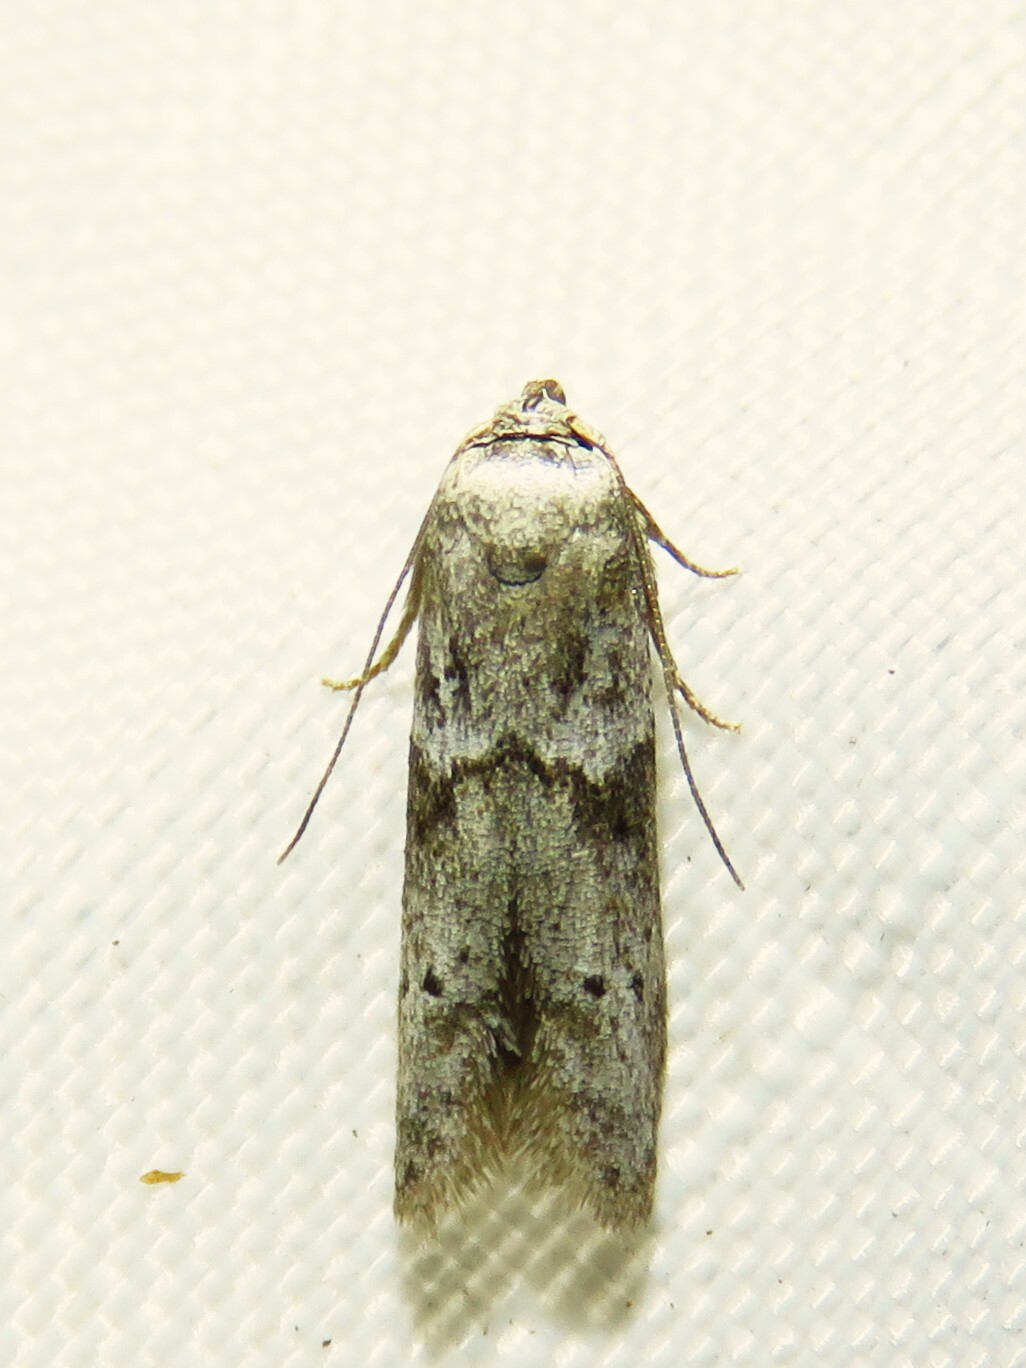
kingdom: Animalia
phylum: Arthropoda
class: Insecta
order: Lepidoptera
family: Blastobasidae
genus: Blastobasis
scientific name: Blastobasis glandulella
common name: Acorn moth
